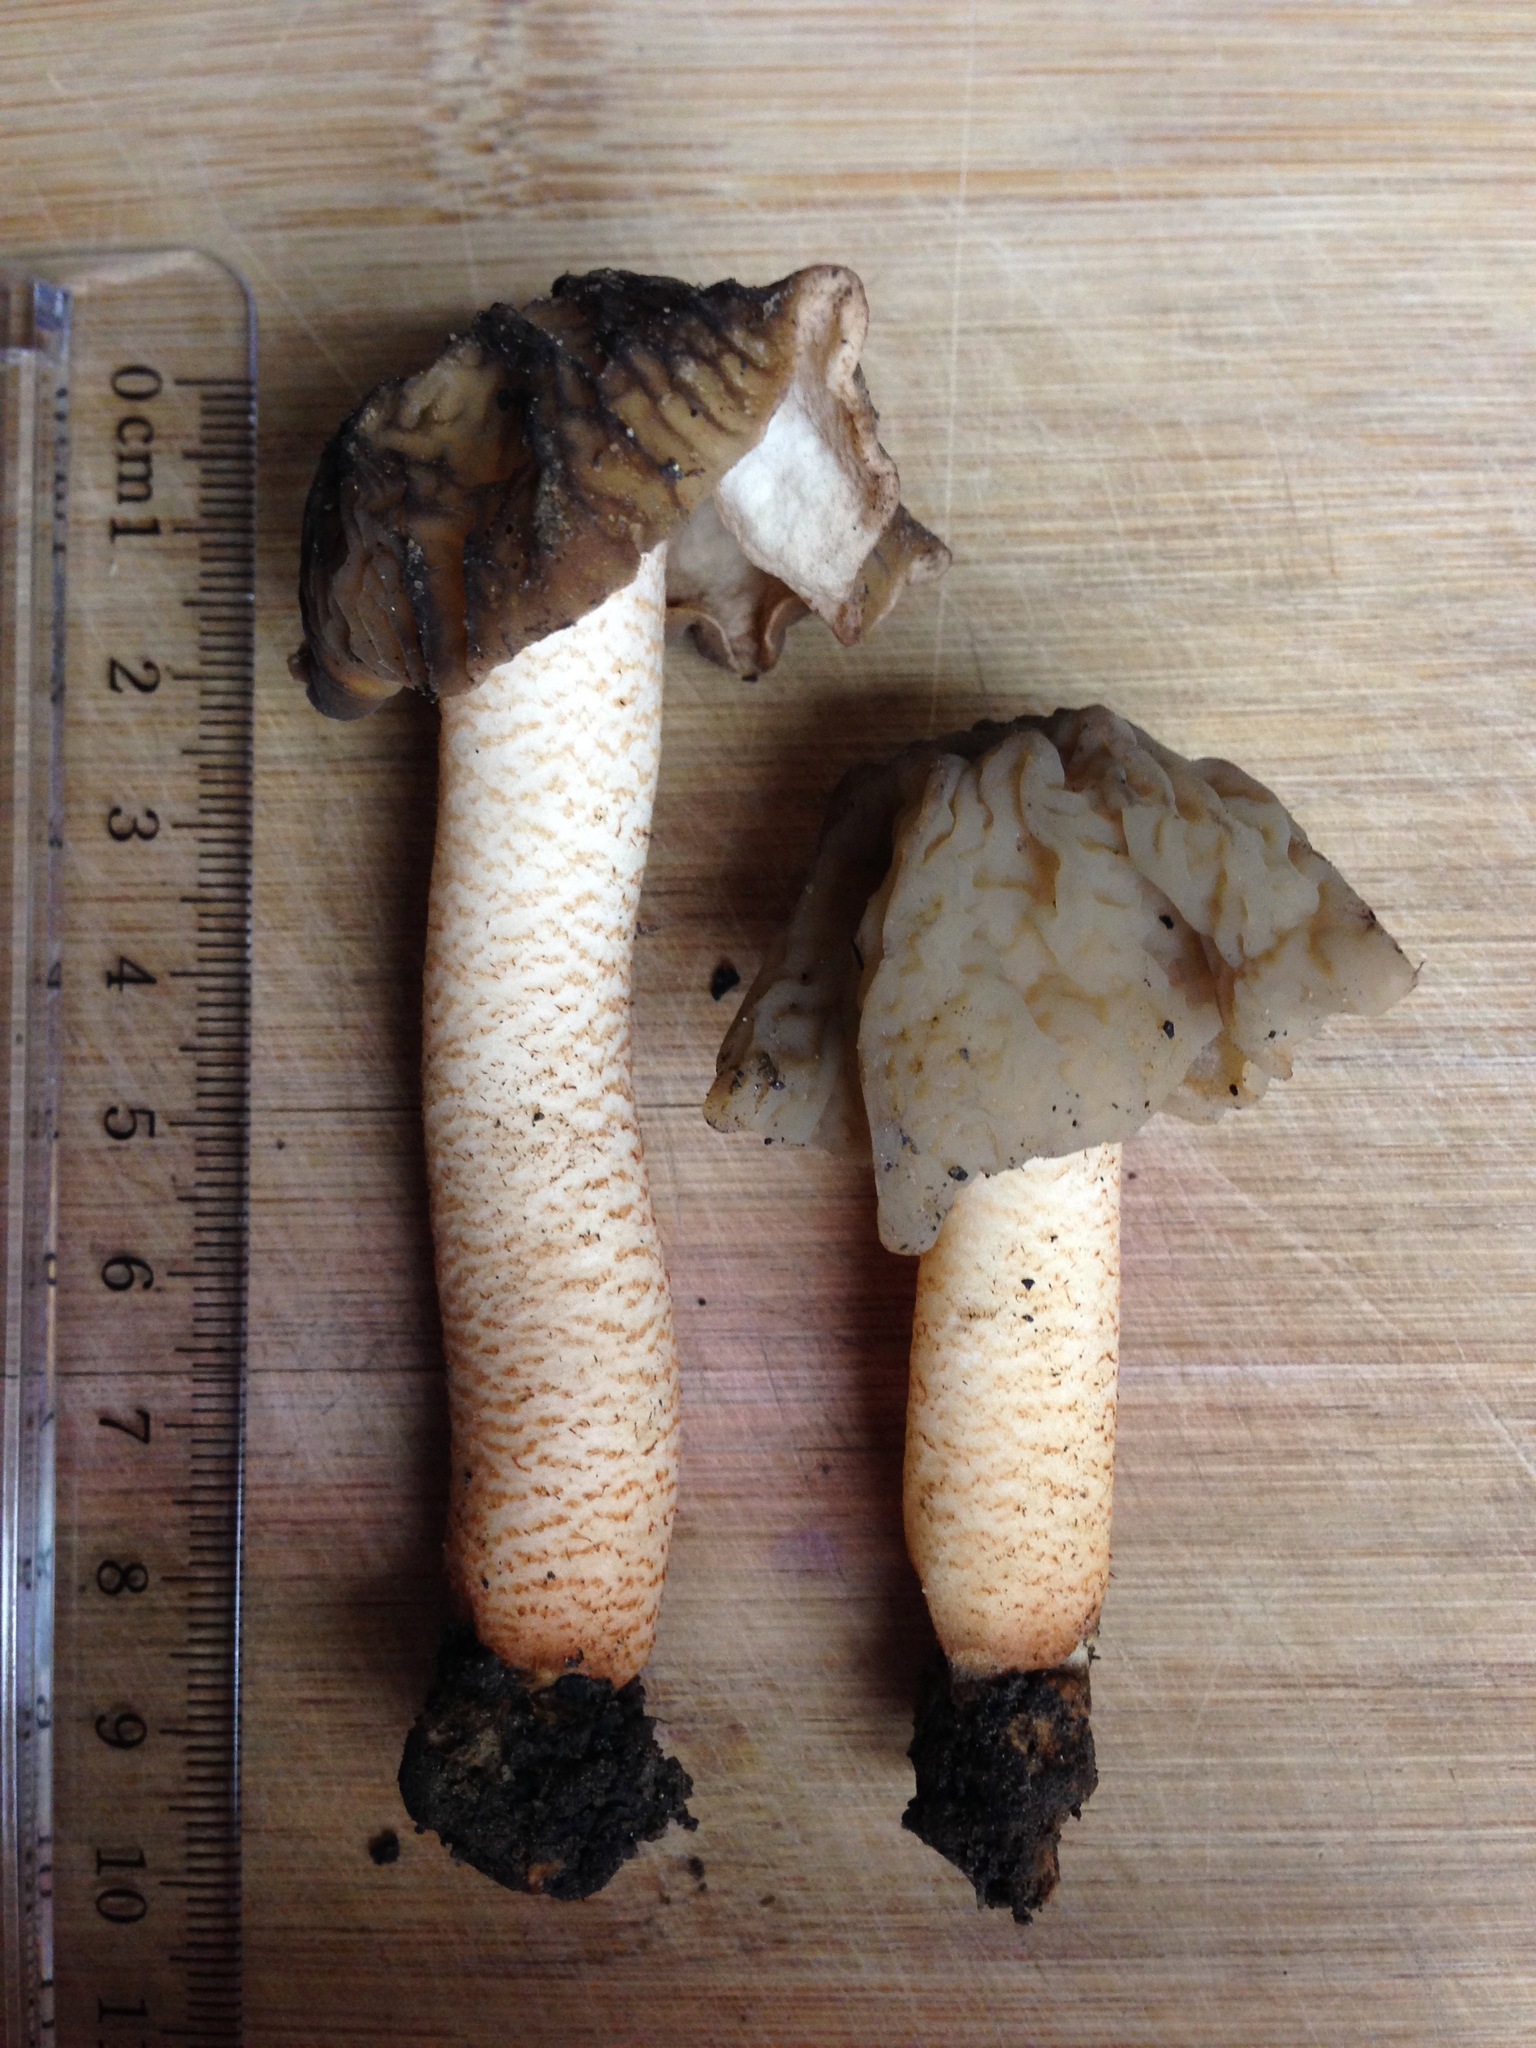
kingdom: Fungi
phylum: Ascomycota
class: Pezizomycetes
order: Pezizales
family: Morchellaceae
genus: Verpa
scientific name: Verpa bohemica
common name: Wrinkled thimble morel
